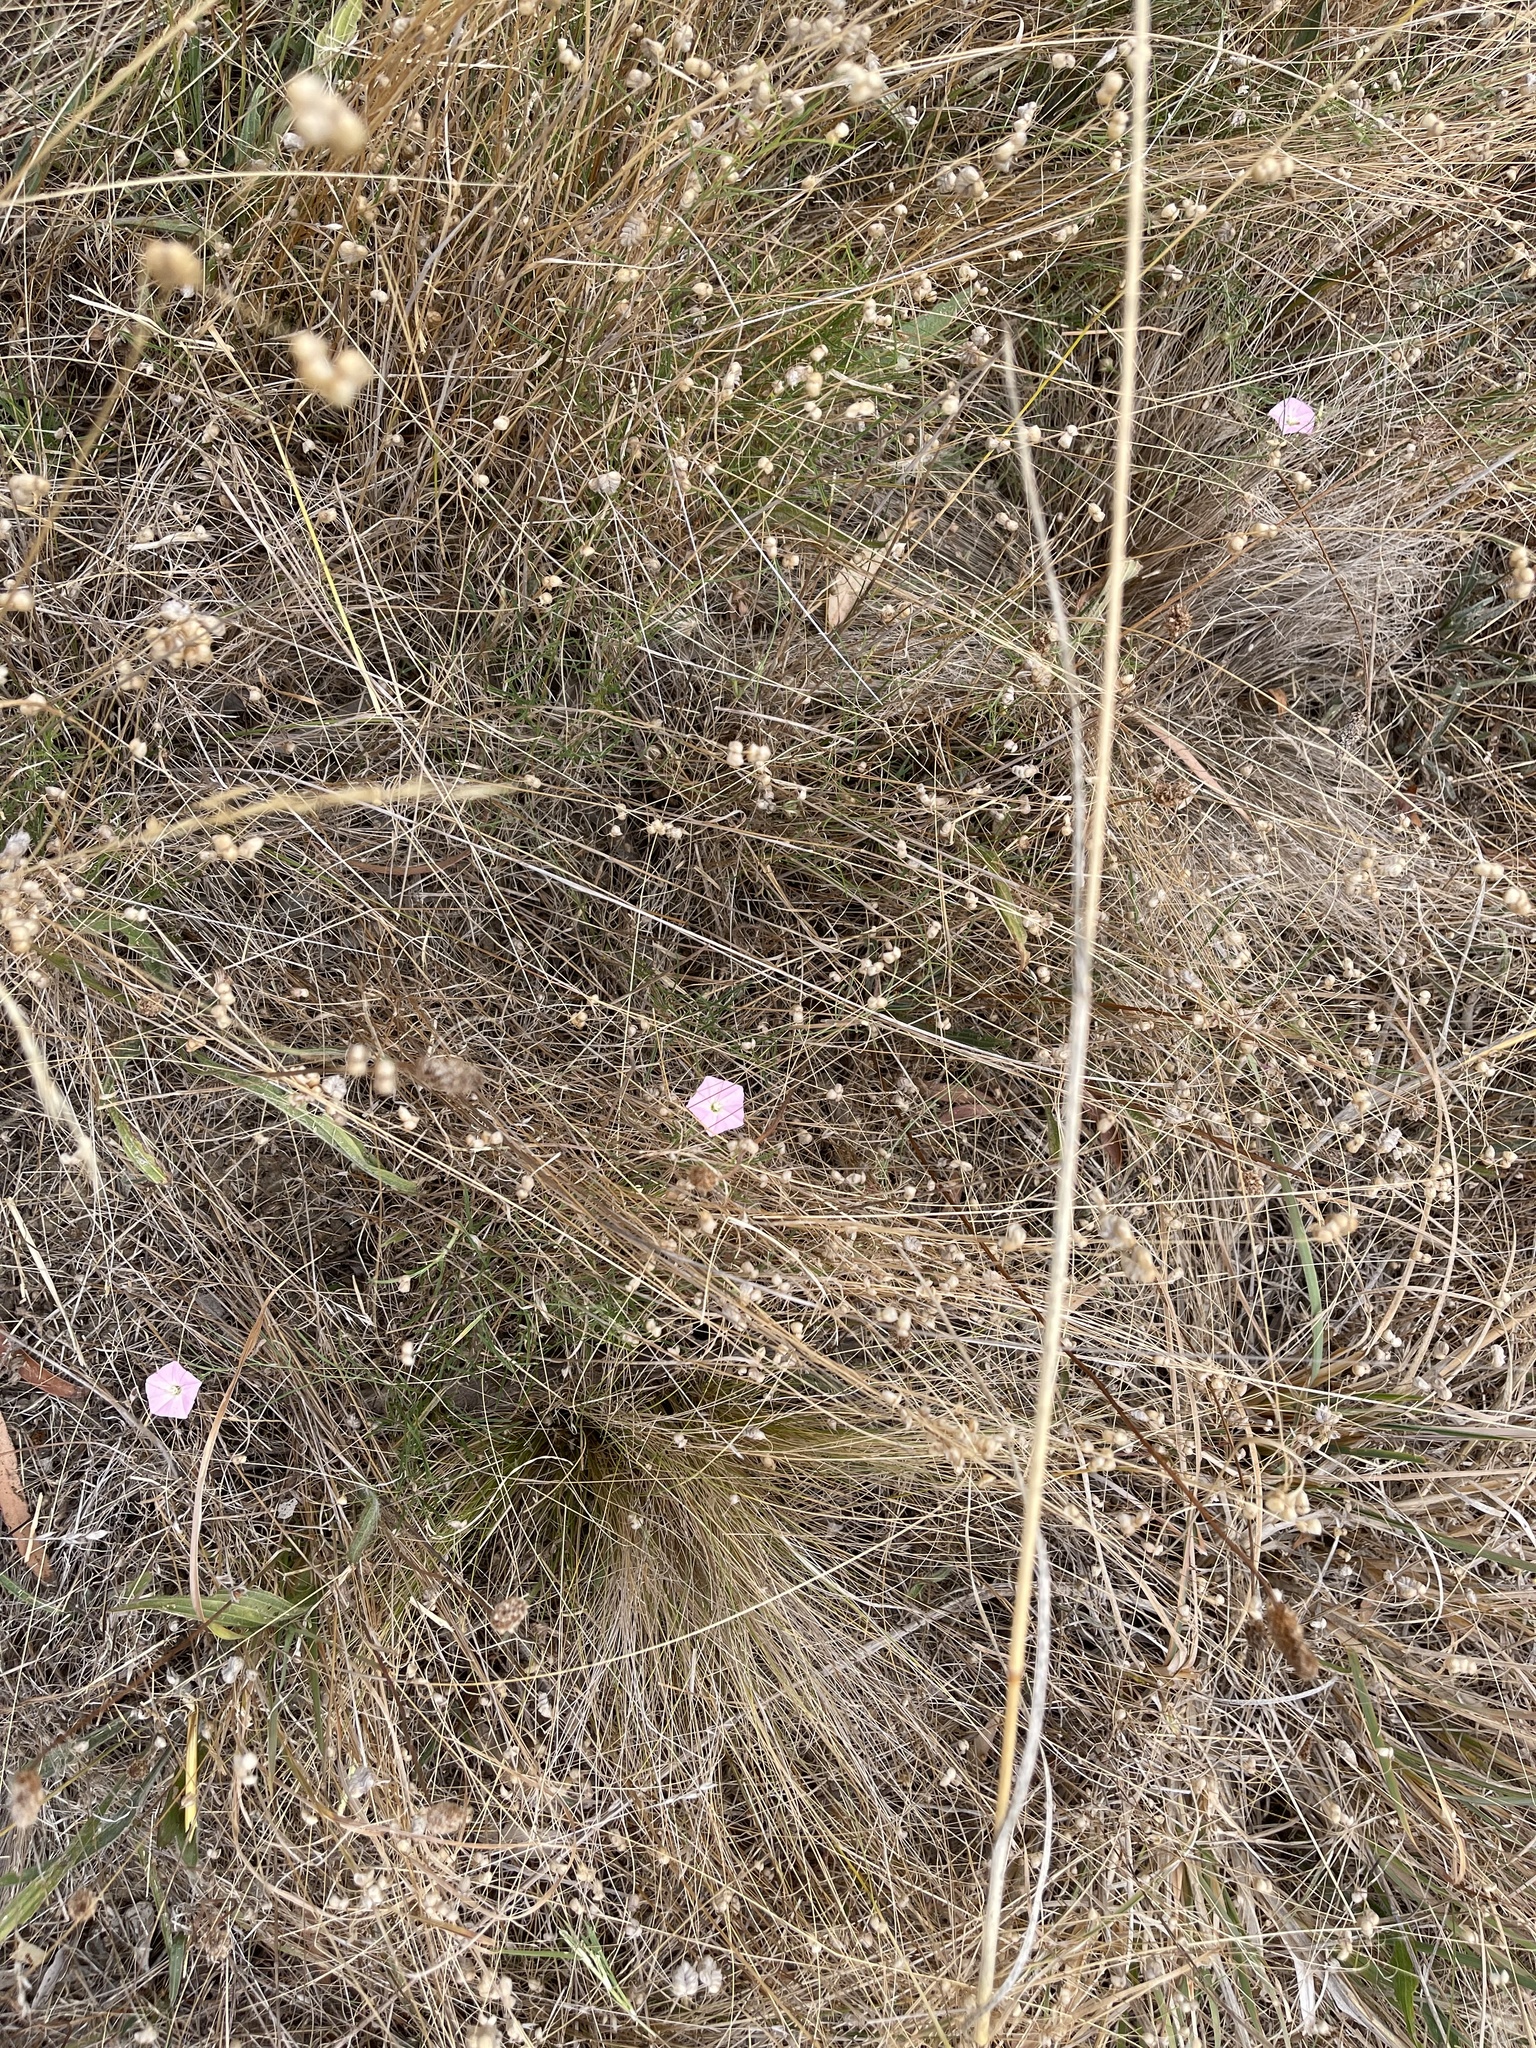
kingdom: Plantae
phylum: Tracheophyta
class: Magnoliopsida
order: Solanales
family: Convolvulaceae
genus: Convolvulus
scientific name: Convolvulus angustissimus
